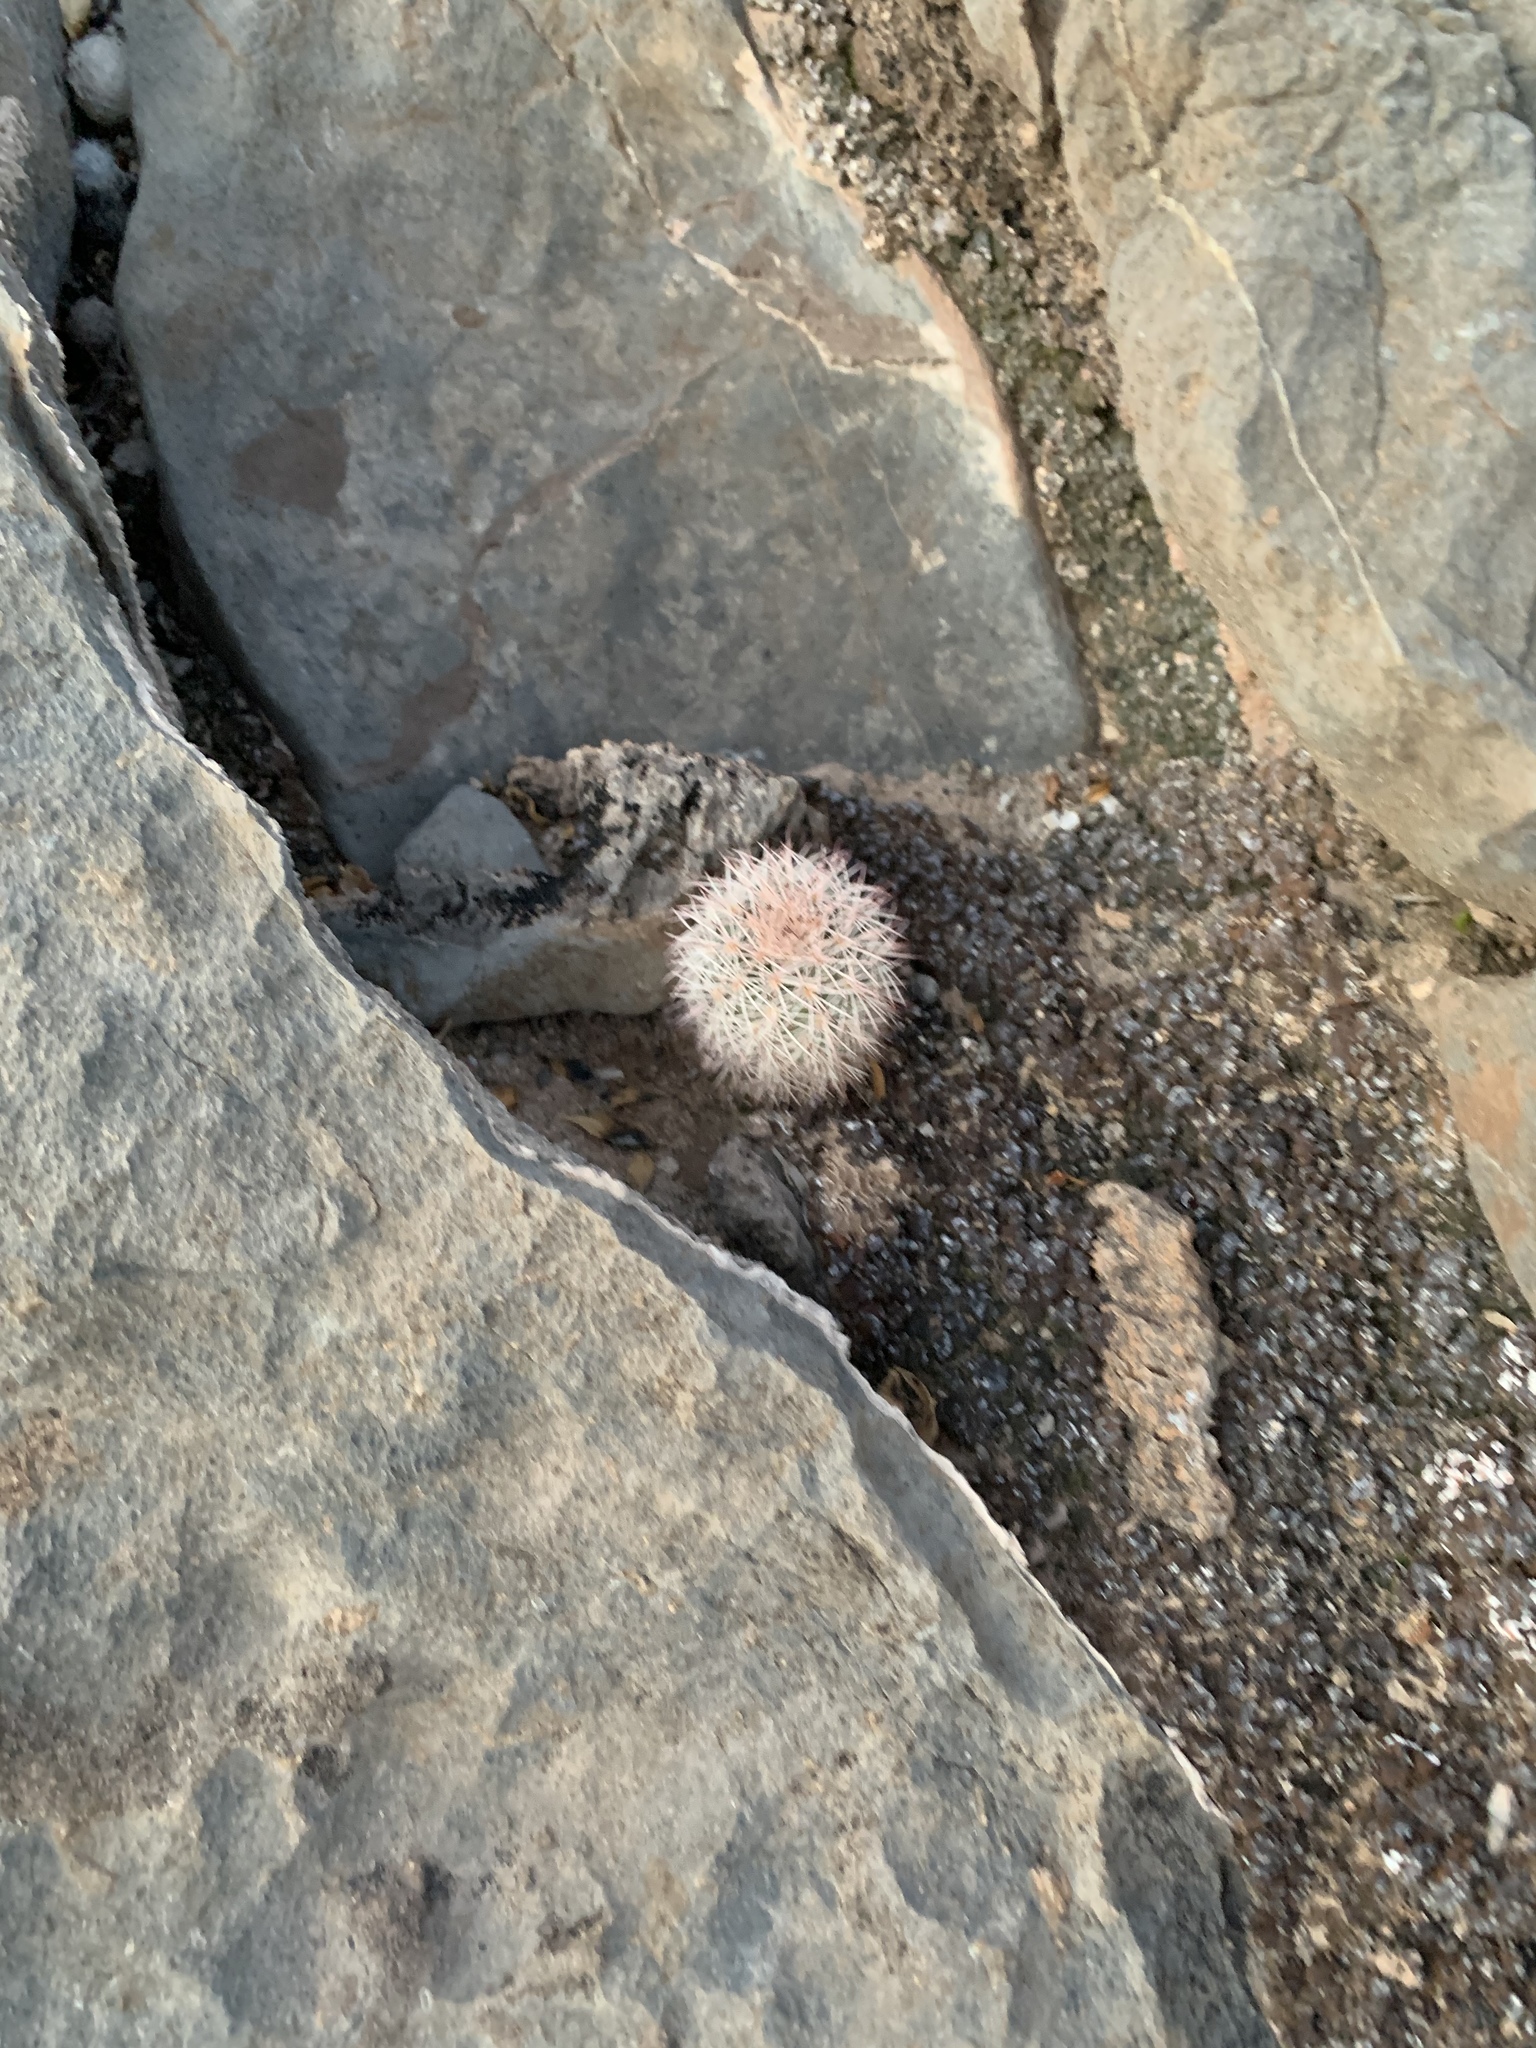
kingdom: Plantae
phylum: Tracheophyta
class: Magnoliopsida
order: Caryophyllales
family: Cactaceae
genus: Echinocereus
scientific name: Echinocereus dasyacanthus
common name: Spiny hedgehog cactus
